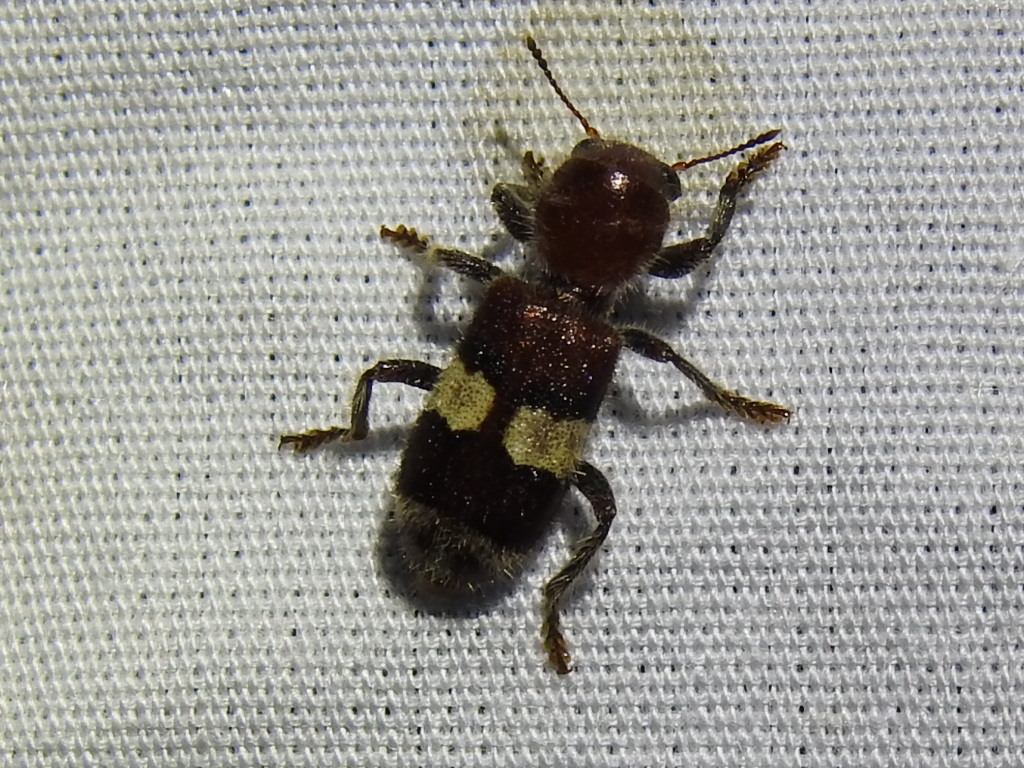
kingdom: Animalia
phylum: Arthropoda
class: Insecta
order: Coleoptera
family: Cleridae
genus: Enoclerus
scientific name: Enoclerus quadrisignatus
